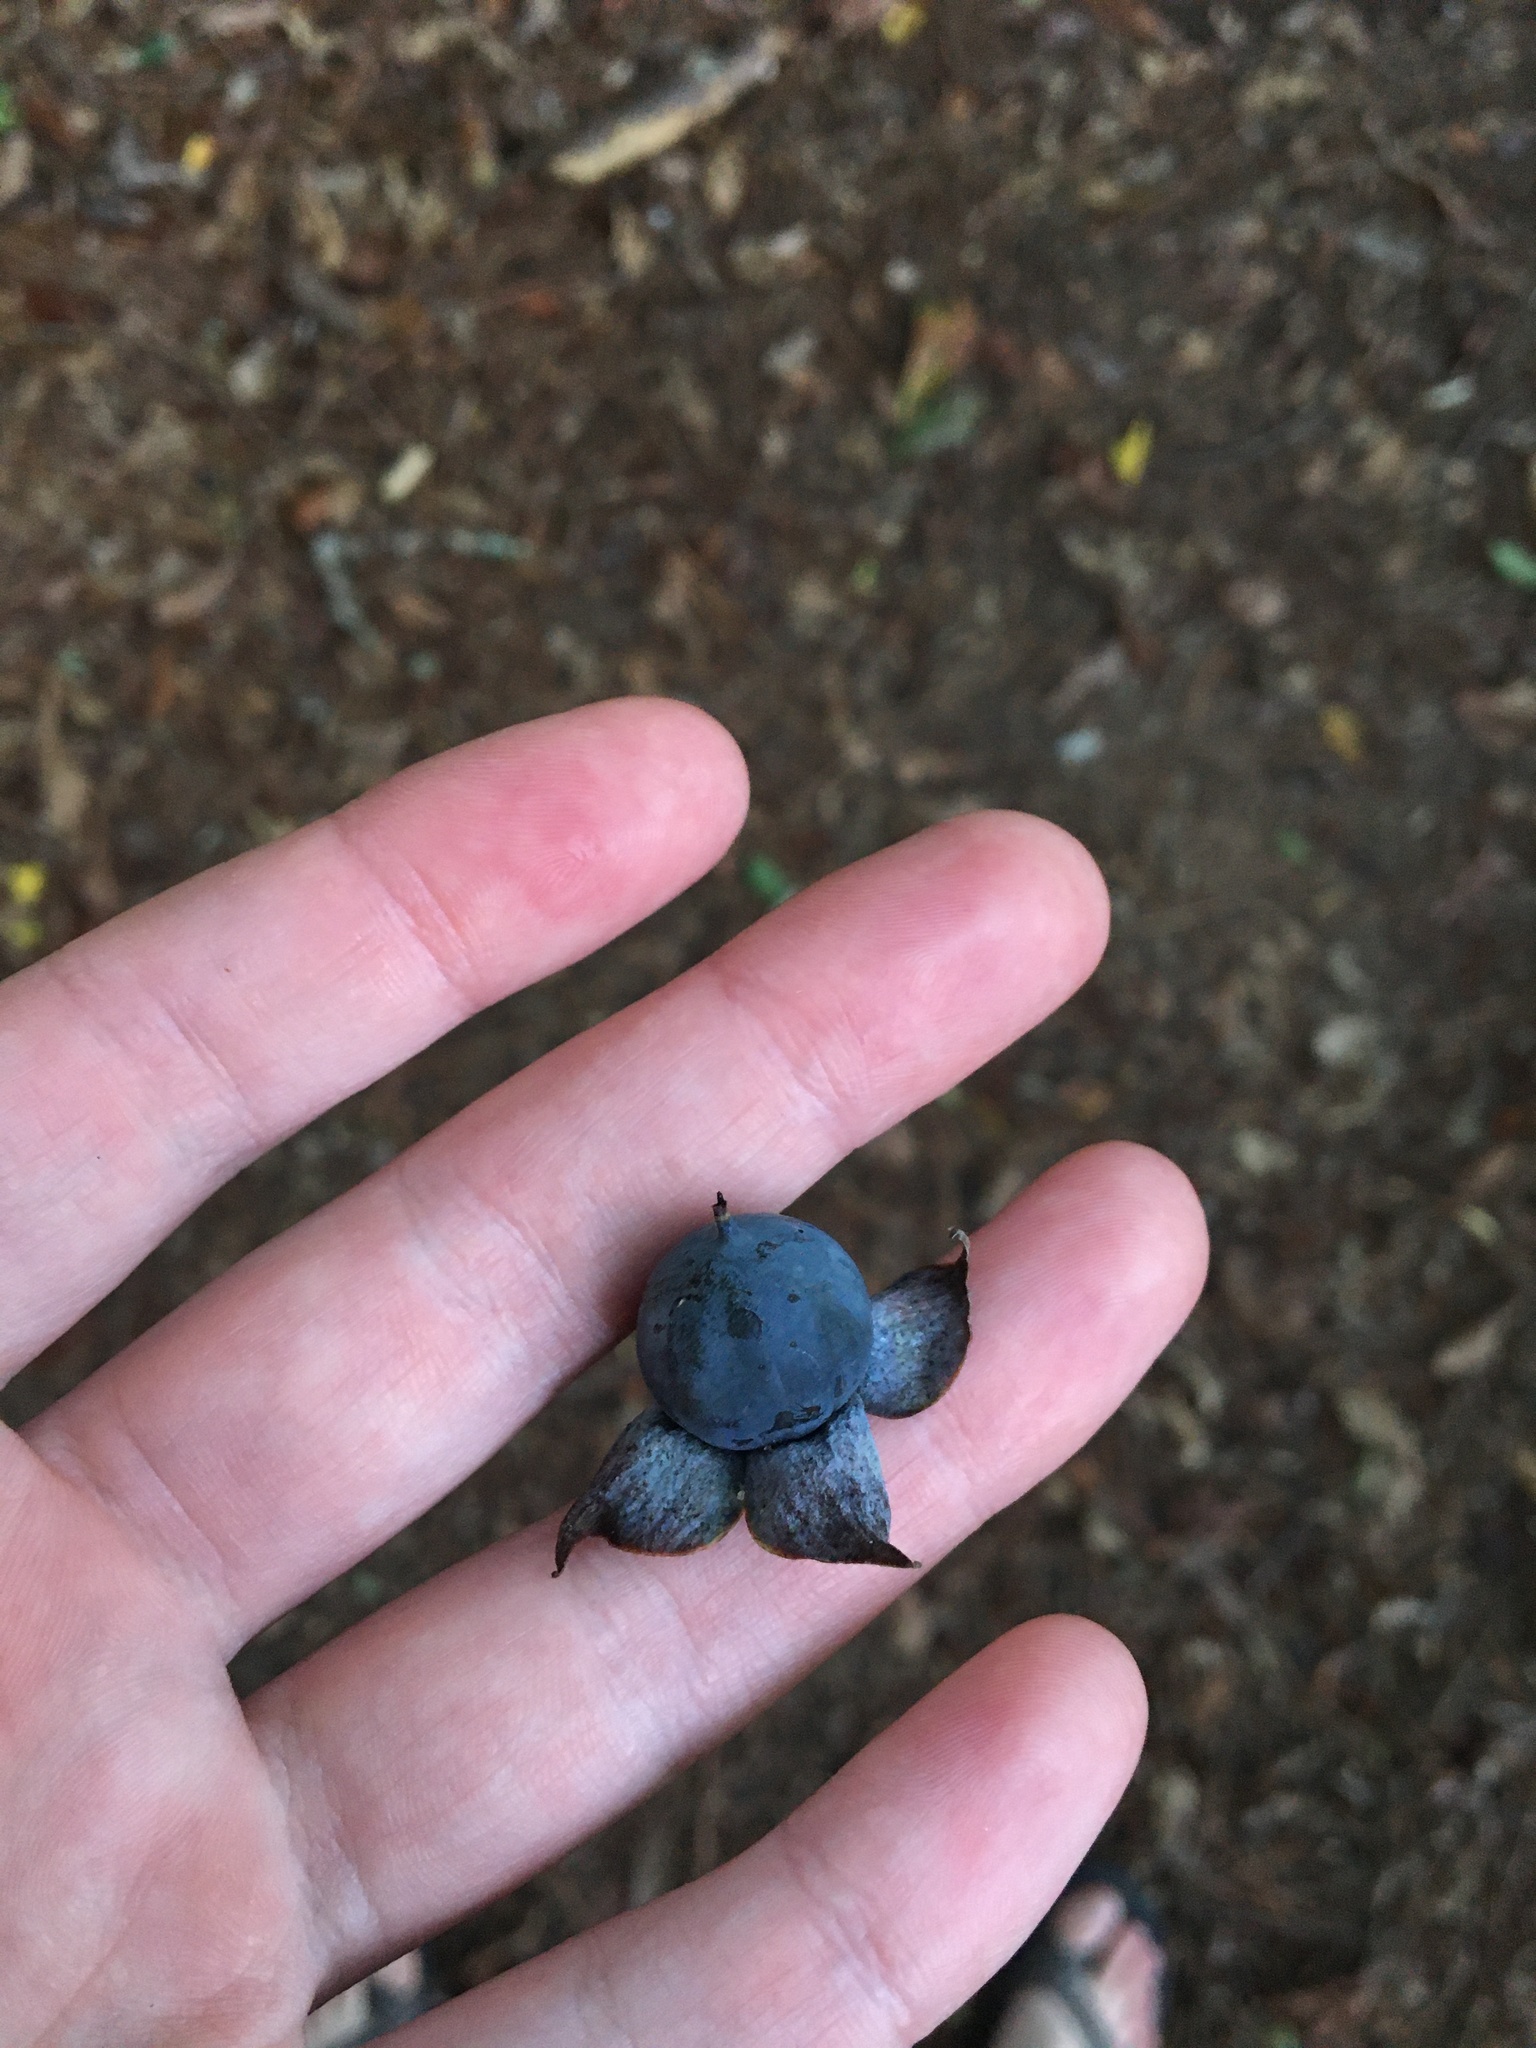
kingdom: Plantae
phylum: Tracheophyta
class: Magnoliopsida
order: Ericales
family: Ebenaceae
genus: Diospyros
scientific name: Diospyros virginiana
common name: Persimmon
